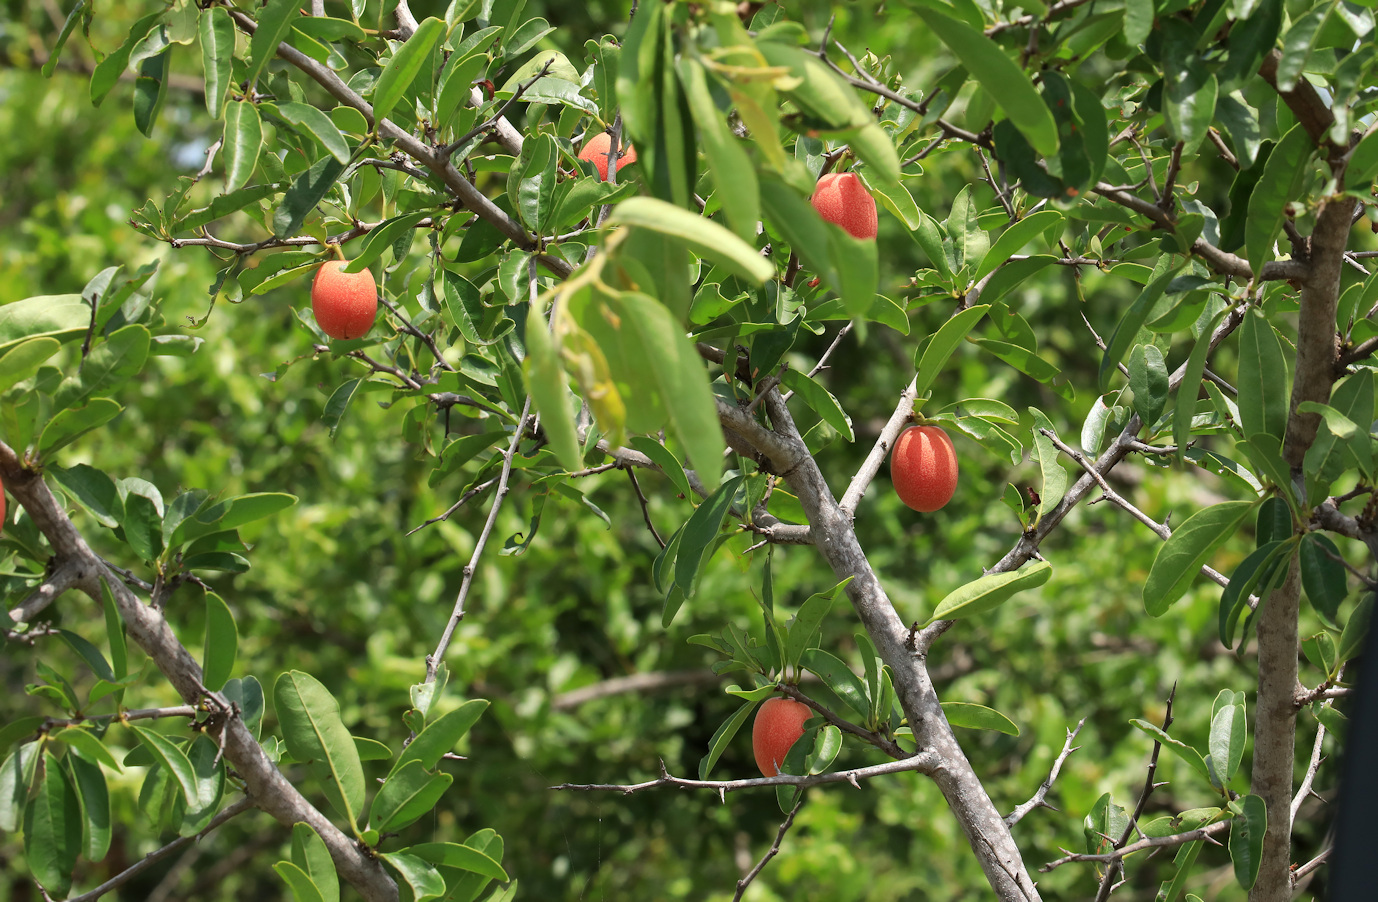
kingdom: Plantae
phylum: Tracheophyta
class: Magnoliopsida
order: Santalales
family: Ximeniaceae
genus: Ximenia
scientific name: Ximenia americana
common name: Tallowwood
